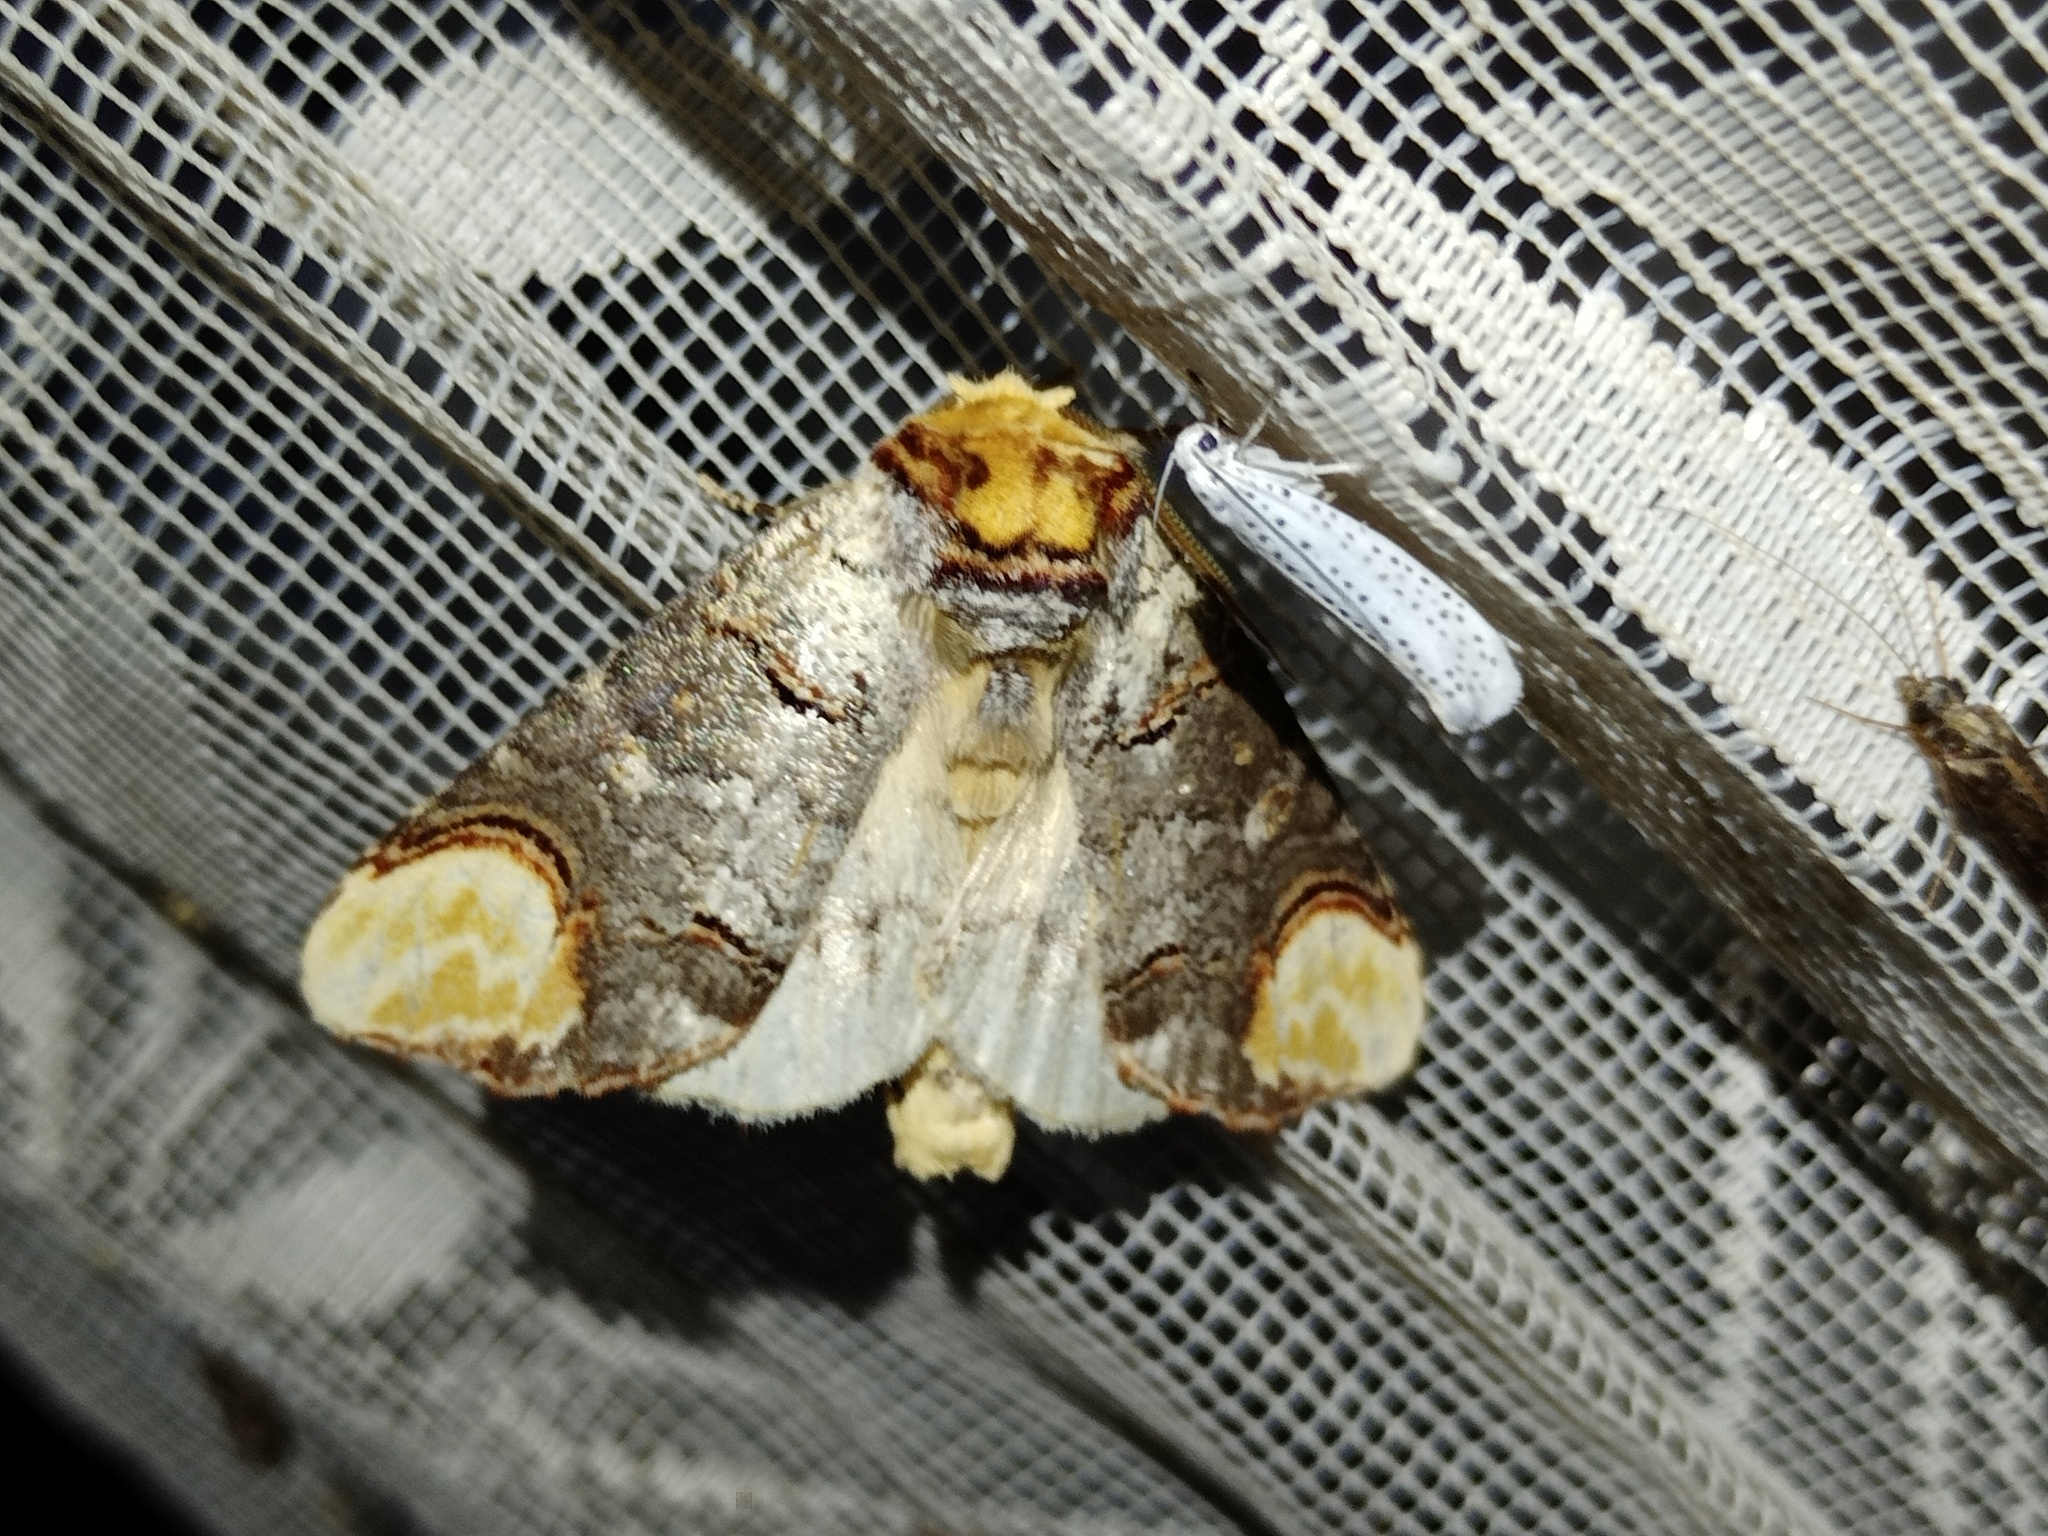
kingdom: Animalia
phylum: Arthropoda
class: Insecta
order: Lepidoptera
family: Notodontidae
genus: Phalera
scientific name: Phalera bucephala
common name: Buff-tip
